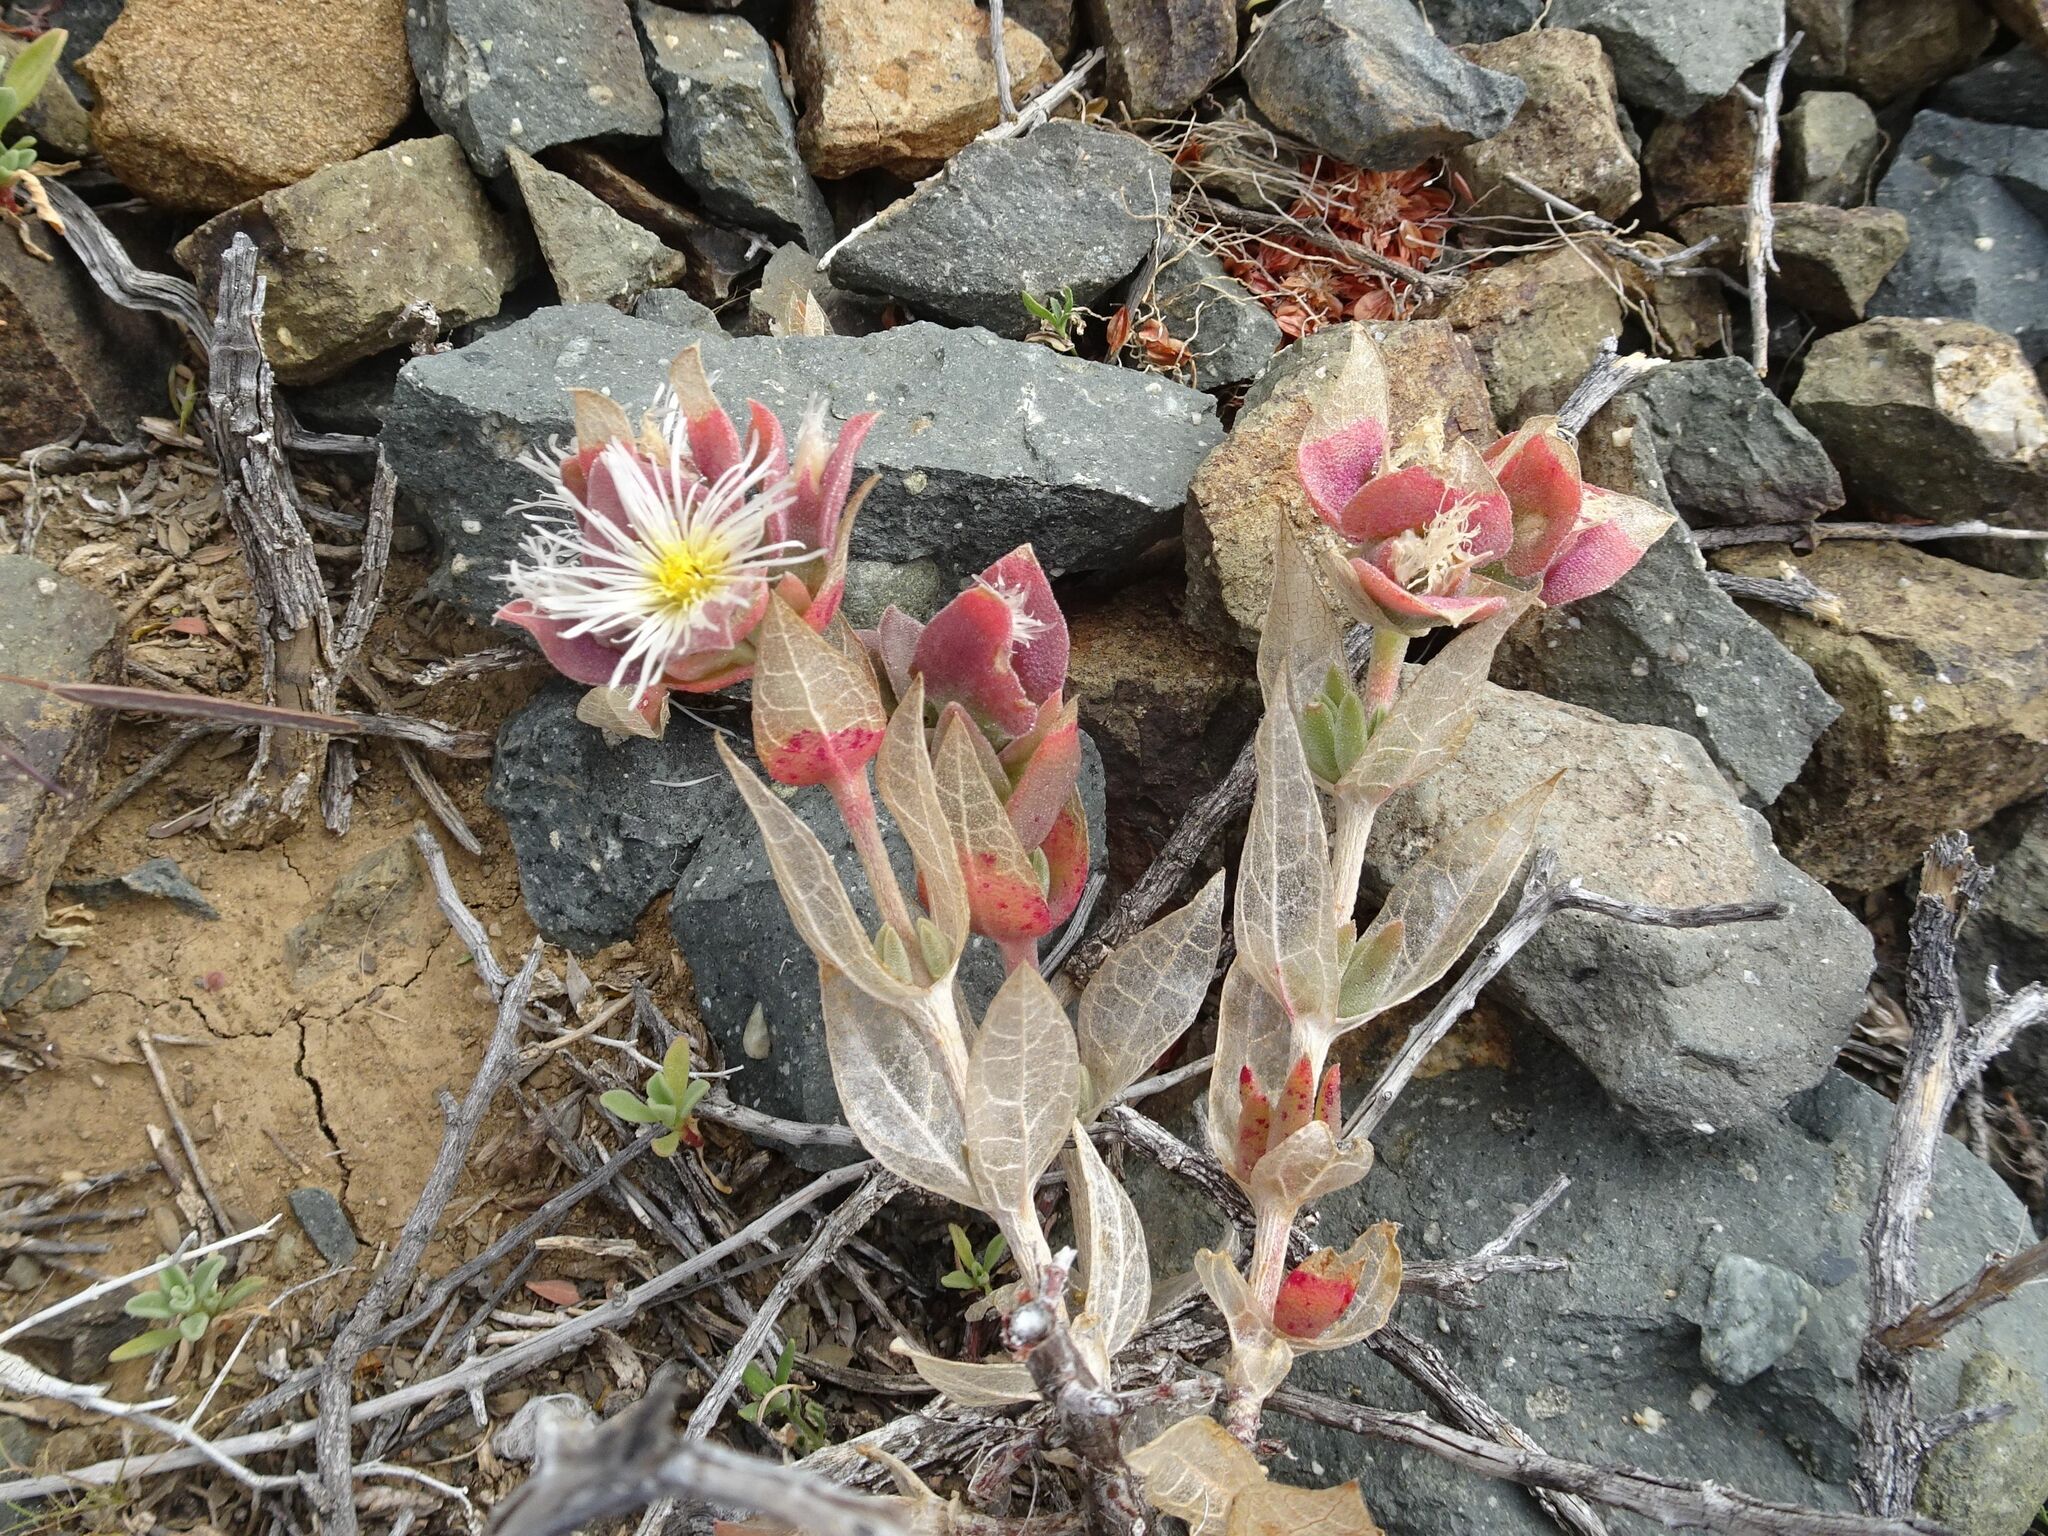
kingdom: Plantae
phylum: Tracheophyta
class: Magnoliopsida
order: Caryophyllales
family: Aizoaceae
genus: Mesembryanthemum
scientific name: Mesembryanthemum expansum
